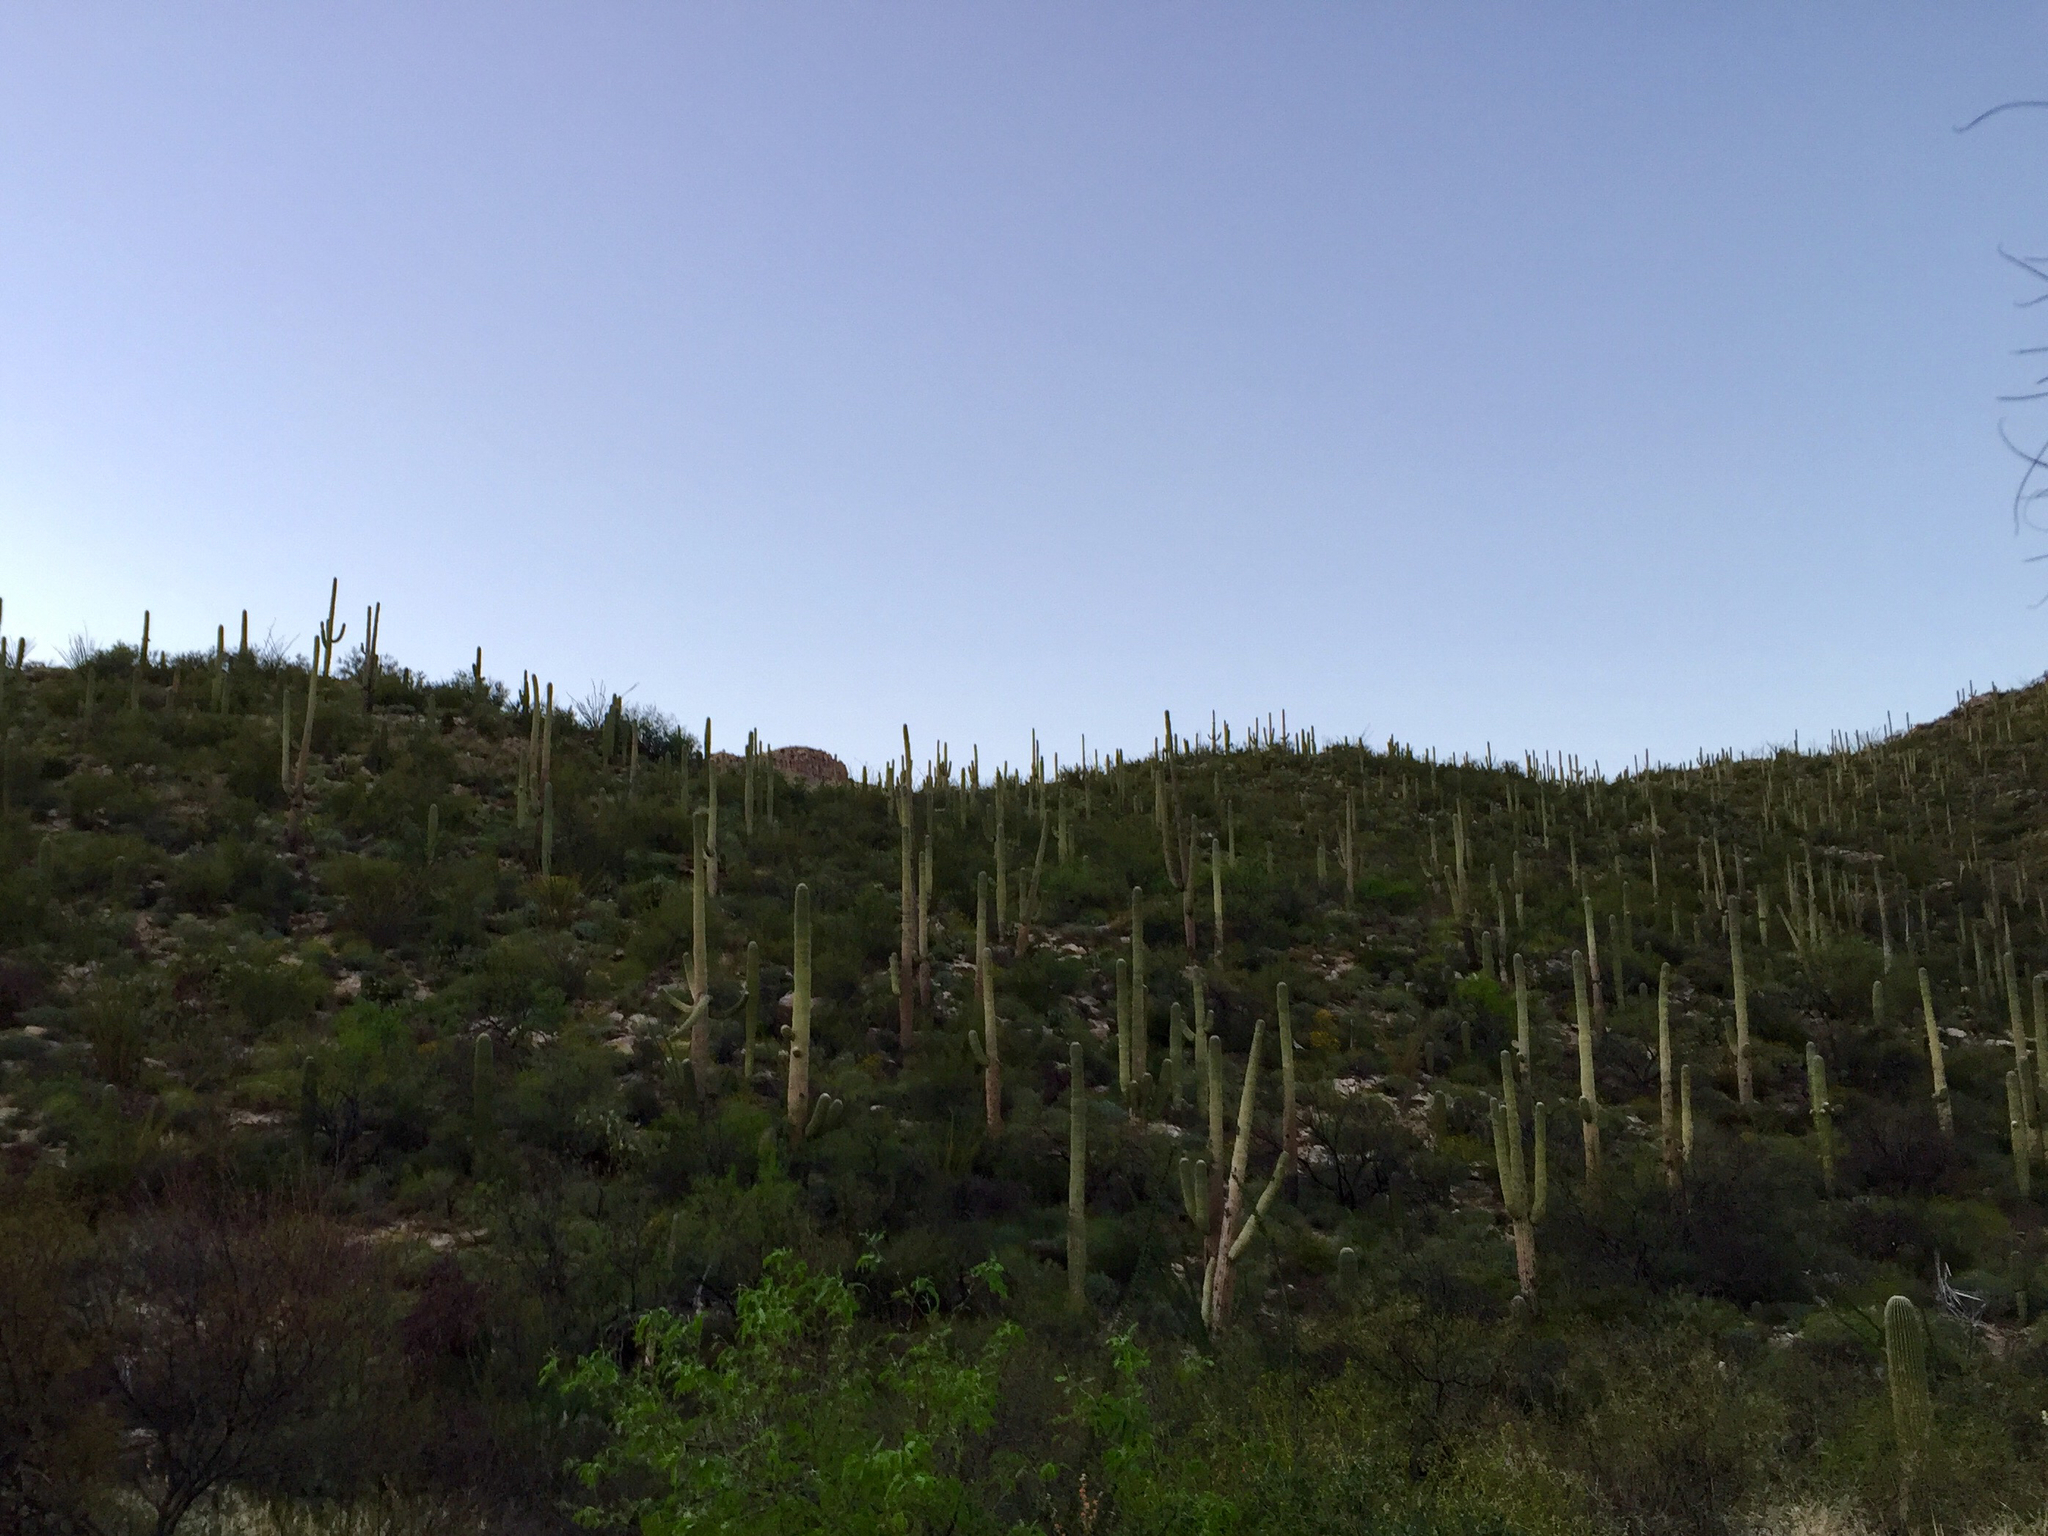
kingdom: Plantae
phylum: Tracheophyta
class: Magnoliopsida
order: Caryophyllales
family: Cactaceae
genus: Carnegiea
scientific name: Carnegiea gigantea
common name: Saguaro
